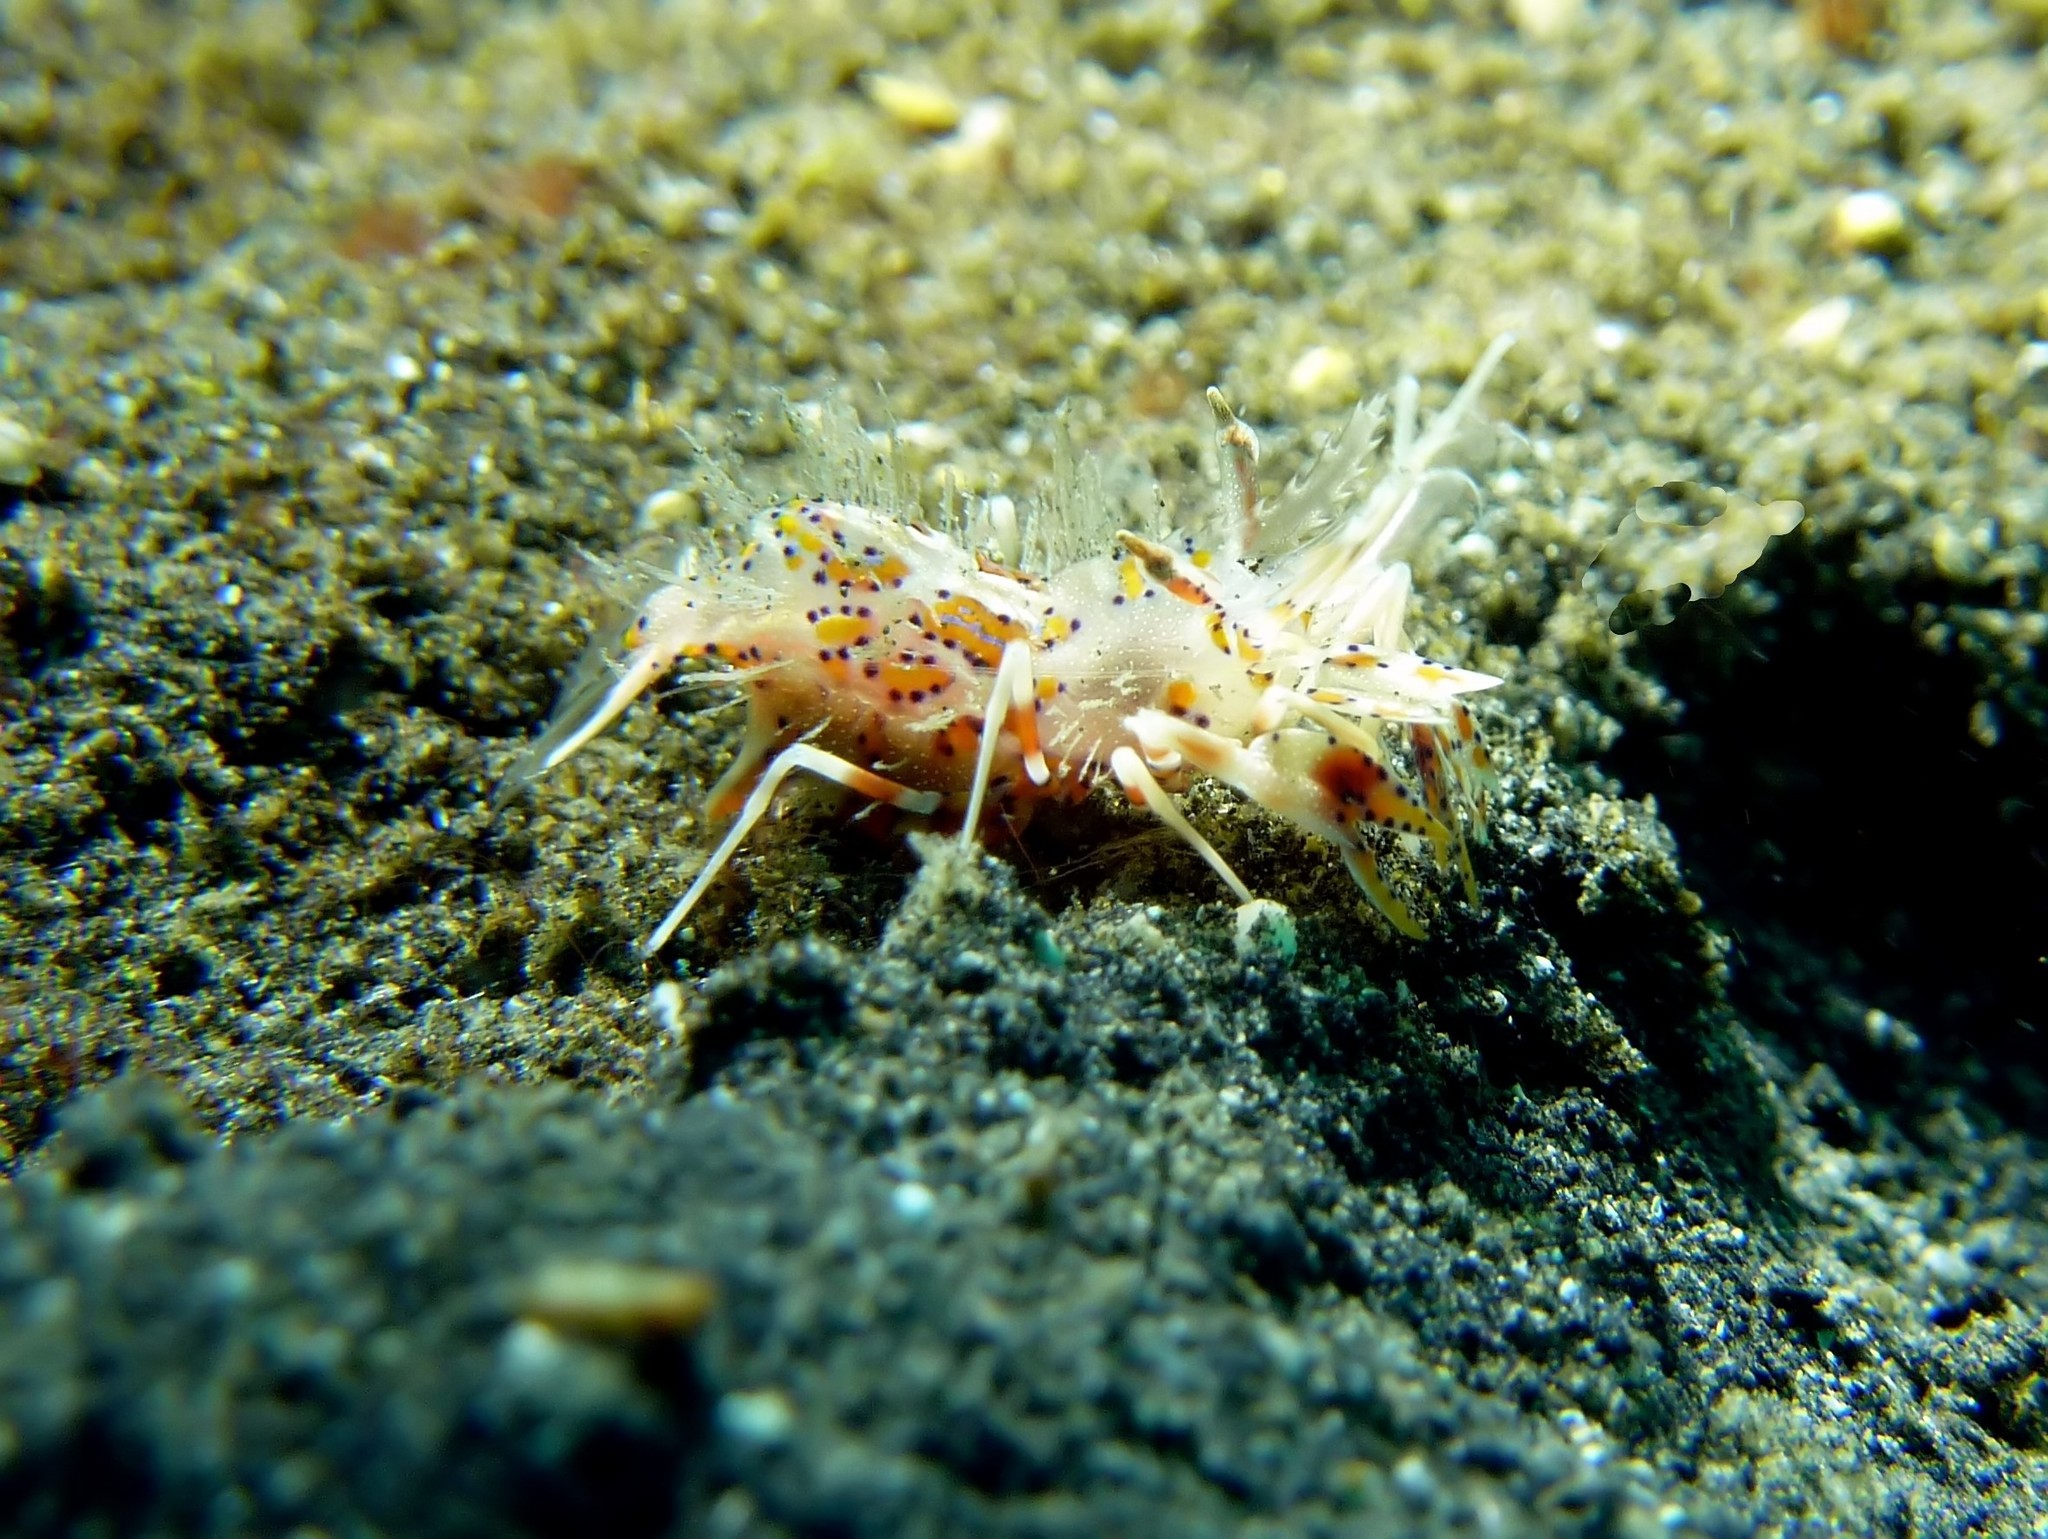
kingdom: Animalia
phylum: Arthropoda
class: Malacostraca
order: Decapoda
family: Palaemonidae
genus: Phyllognathia
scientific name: Phyllognathia ceratophthalma
